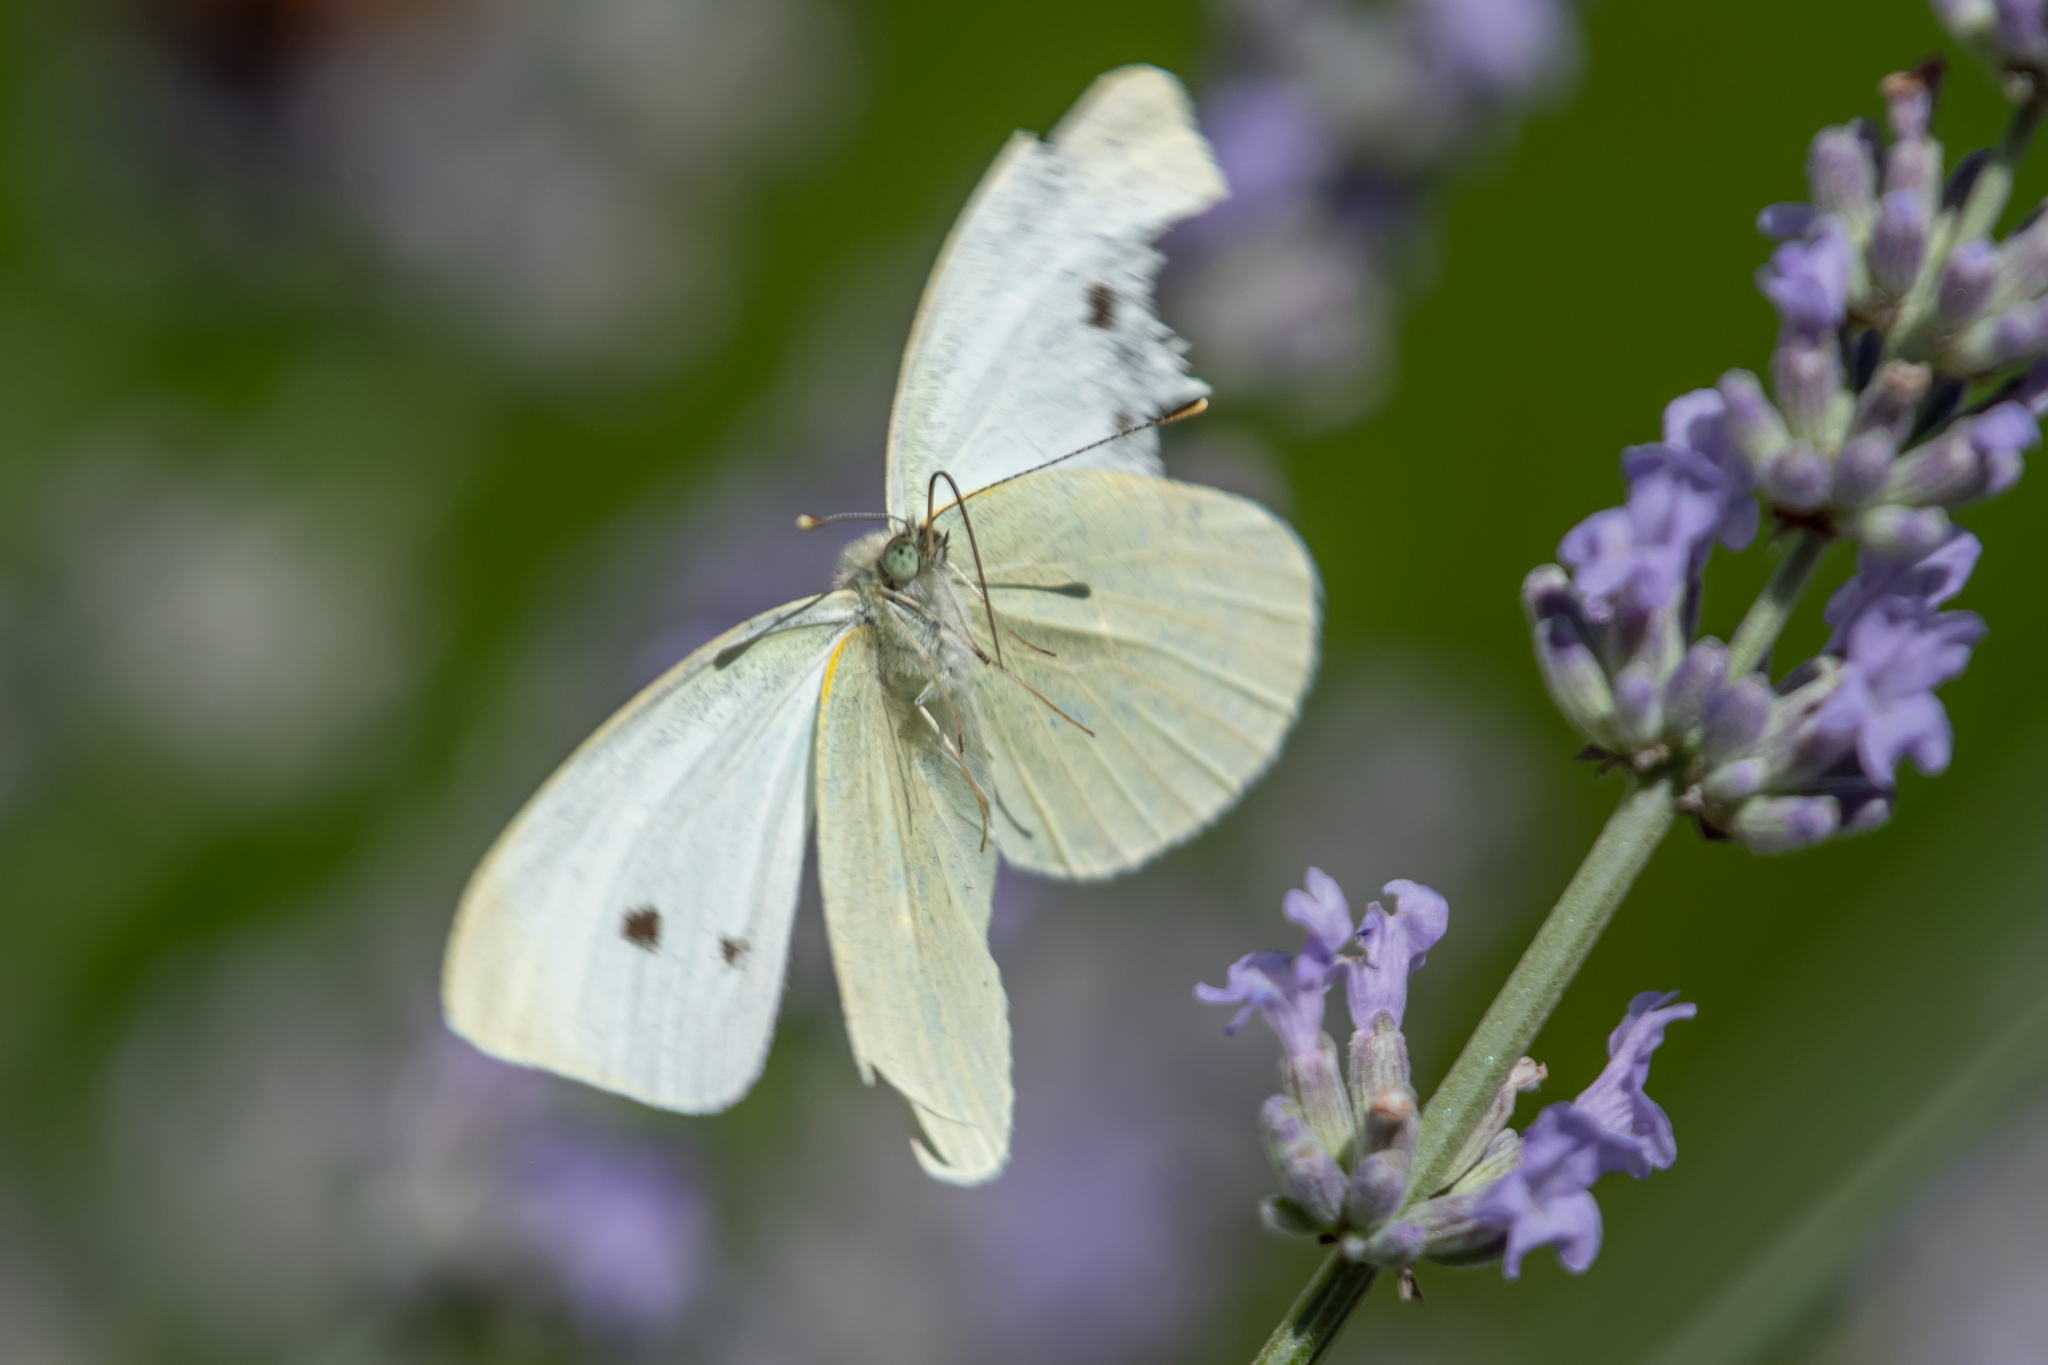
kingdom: Animalia
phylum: Arthropoda
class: Insecta
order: Lepidoptera
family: Pieridae
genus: Pieris
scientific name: Pieris rapae
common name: Small white
